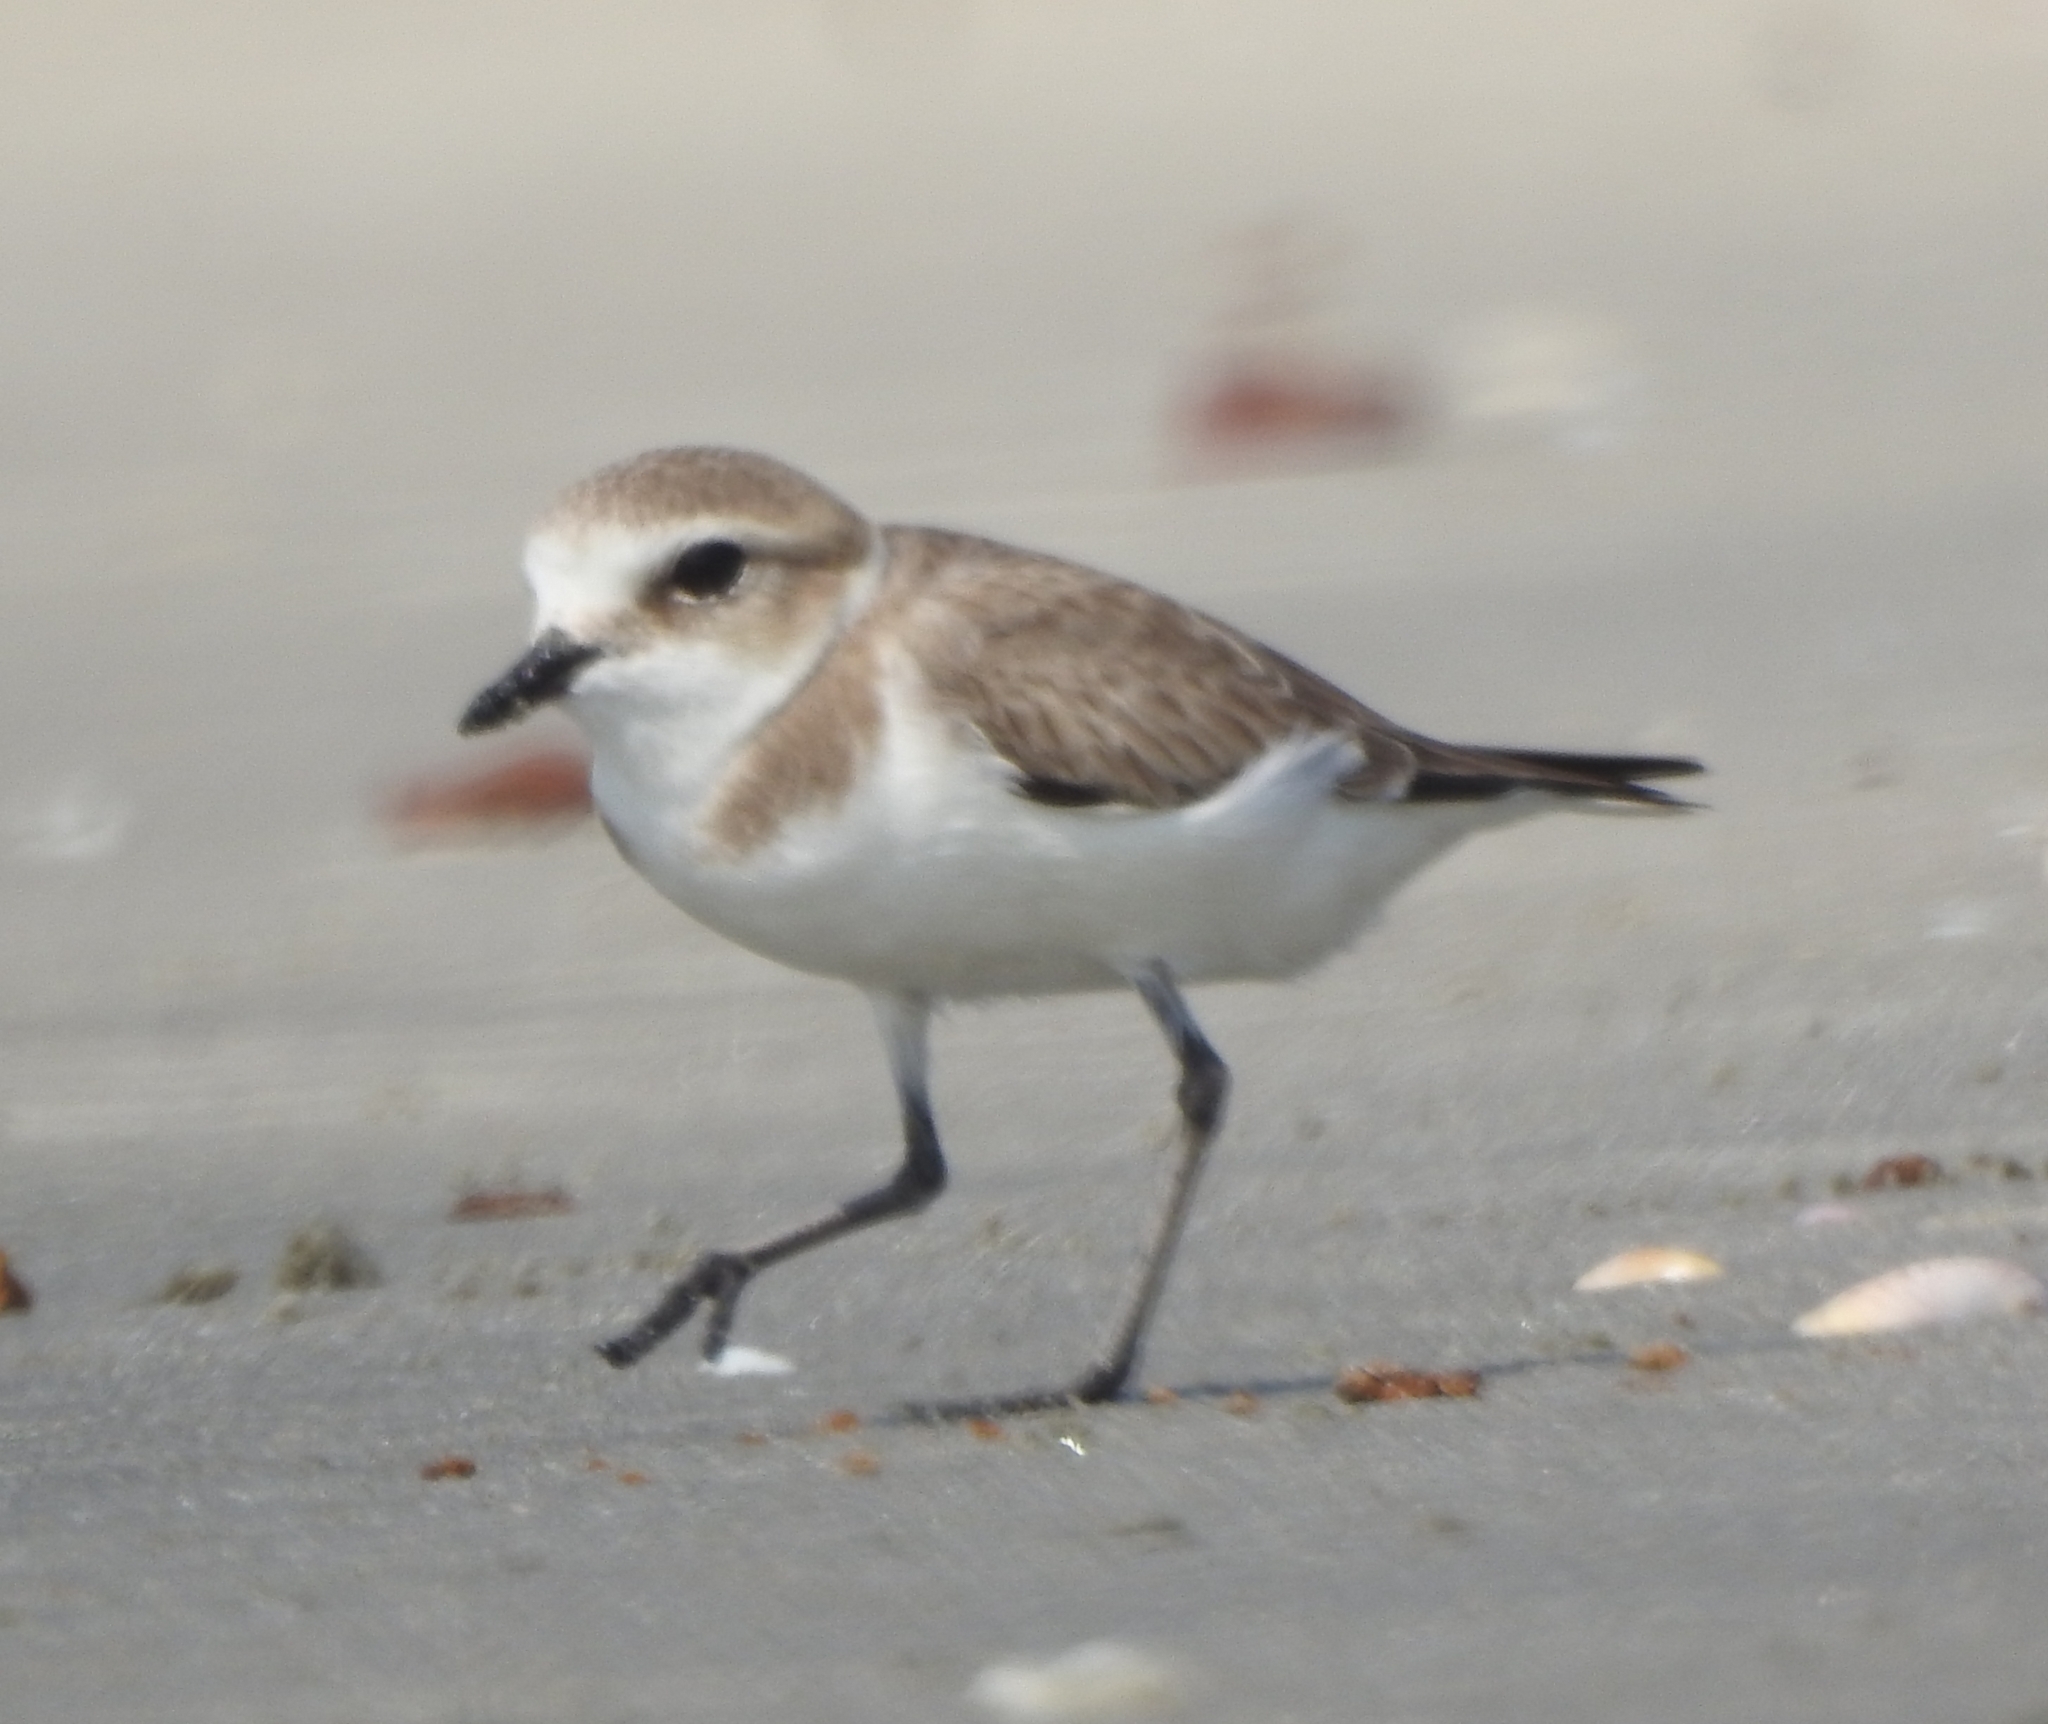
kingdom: Animalia
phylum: Chordata
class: Aves
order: Charadriiformes
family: Charadriidae
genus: Charadrius
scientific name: Charadrius alexandrinus
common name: Kentish plover
